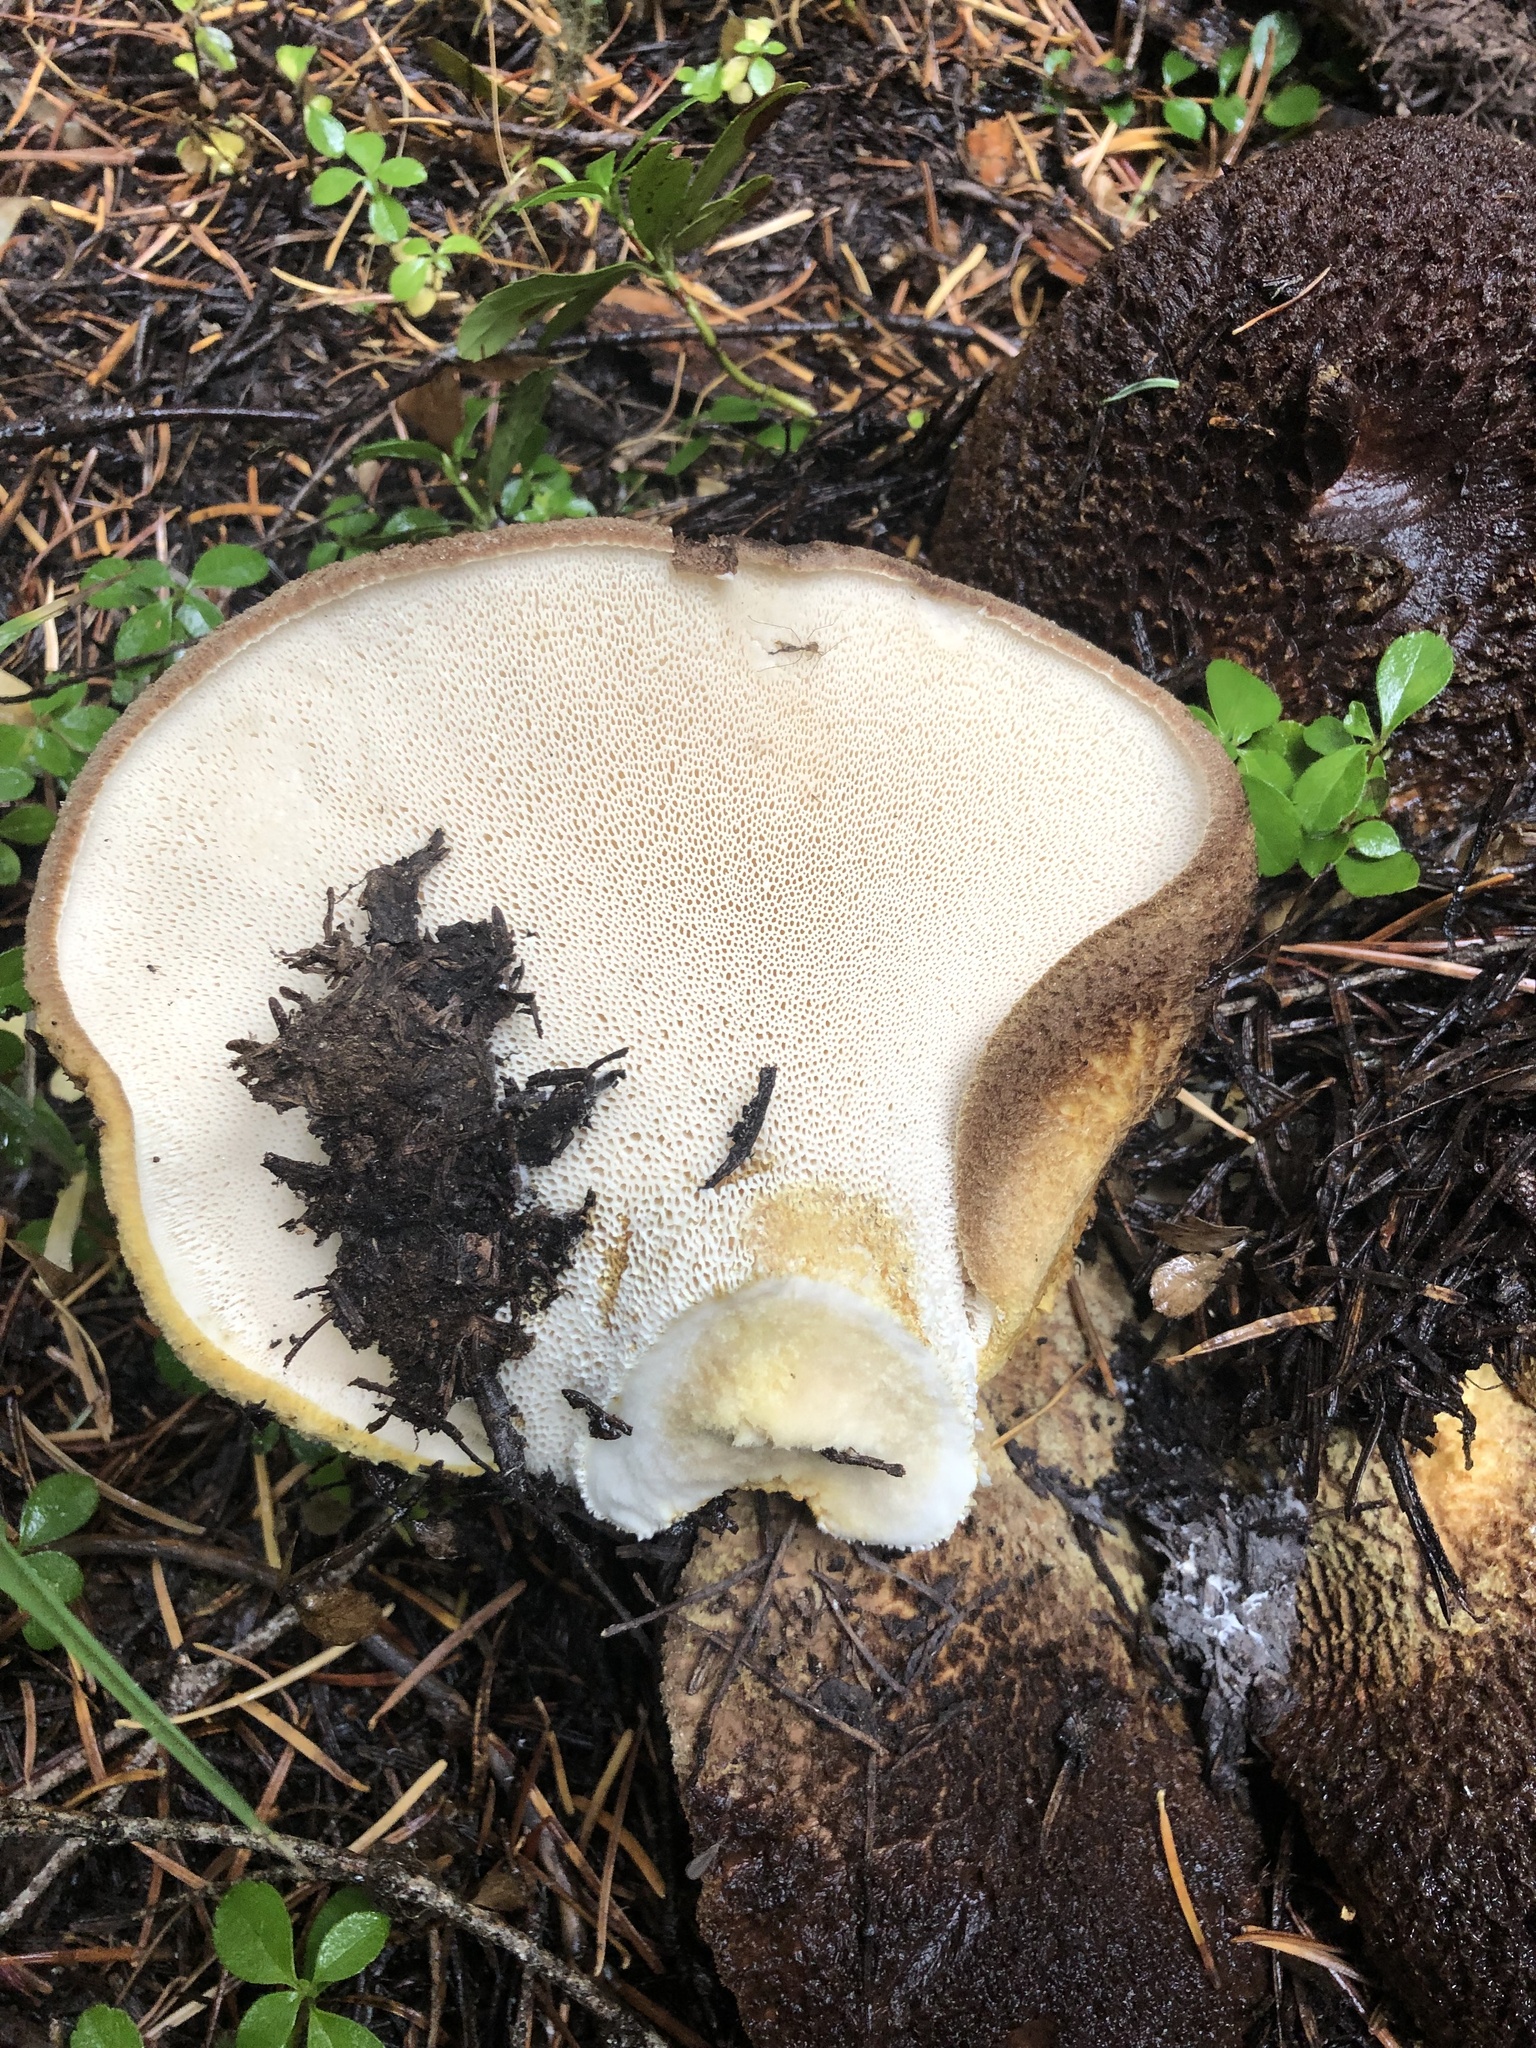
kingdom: Fungi
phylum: Basidiomycota
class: Agaricomycetes
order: Russulales
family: Albatrellaceae
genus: Albatrellopsis
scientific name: Albatrellopsis ellisii
